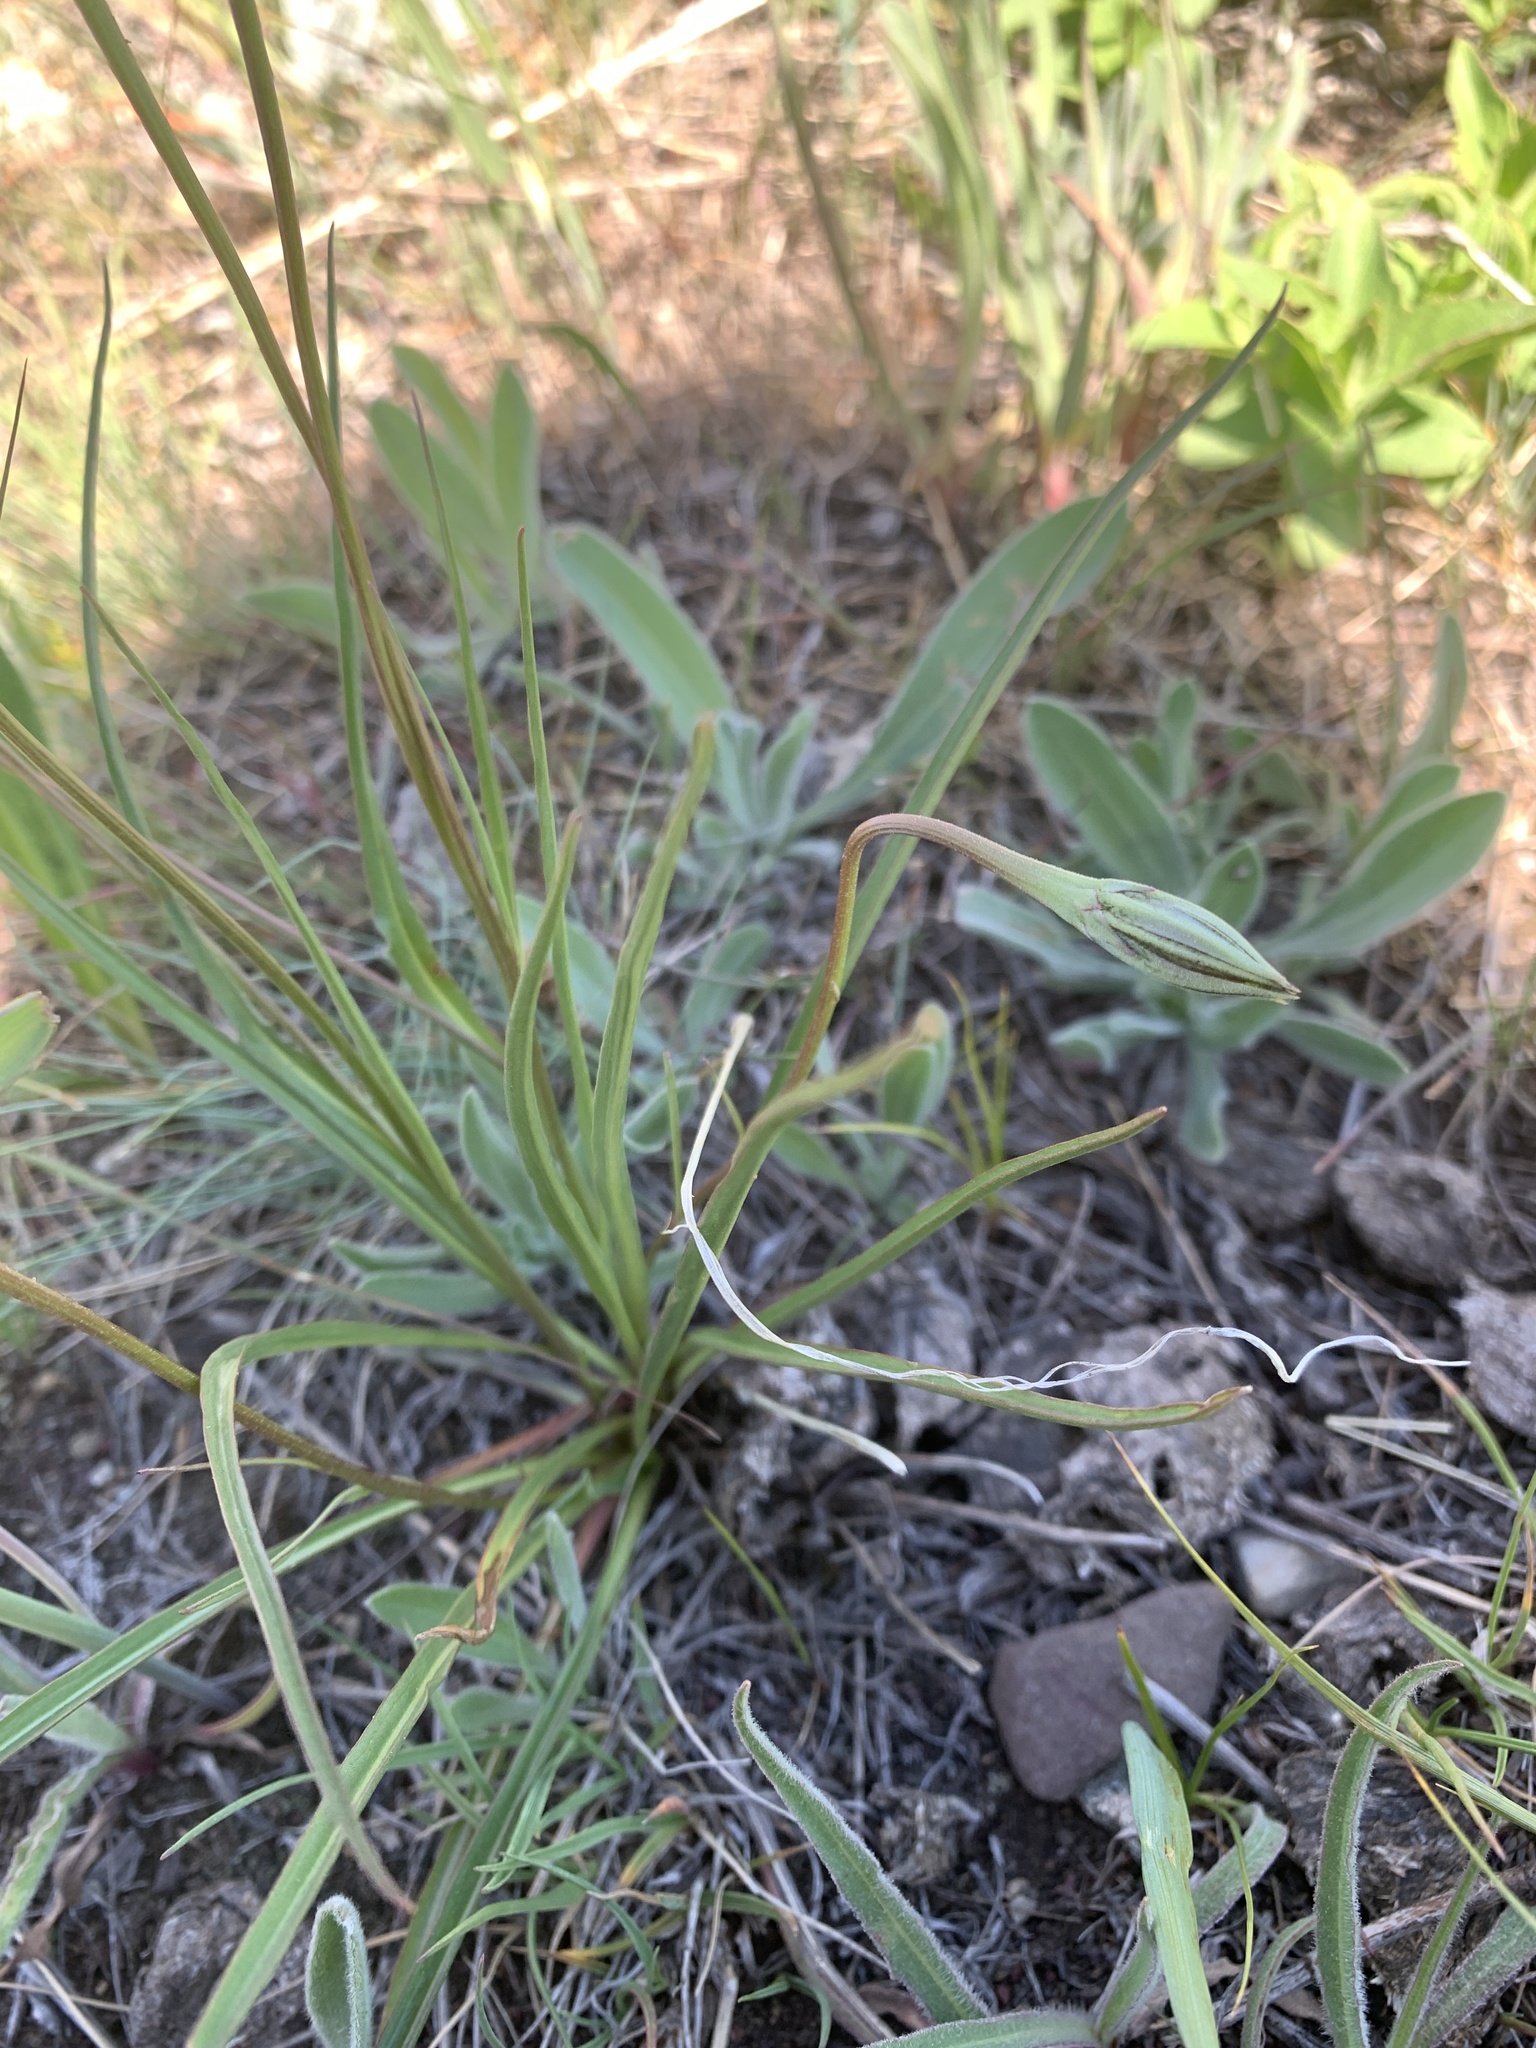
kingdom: Plantae
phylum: Tracheophyta
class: Magnoliopsida
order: Asterales
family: Asteraceae
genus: Microseris
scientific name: Microseris nutans
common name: Nodding microseris
